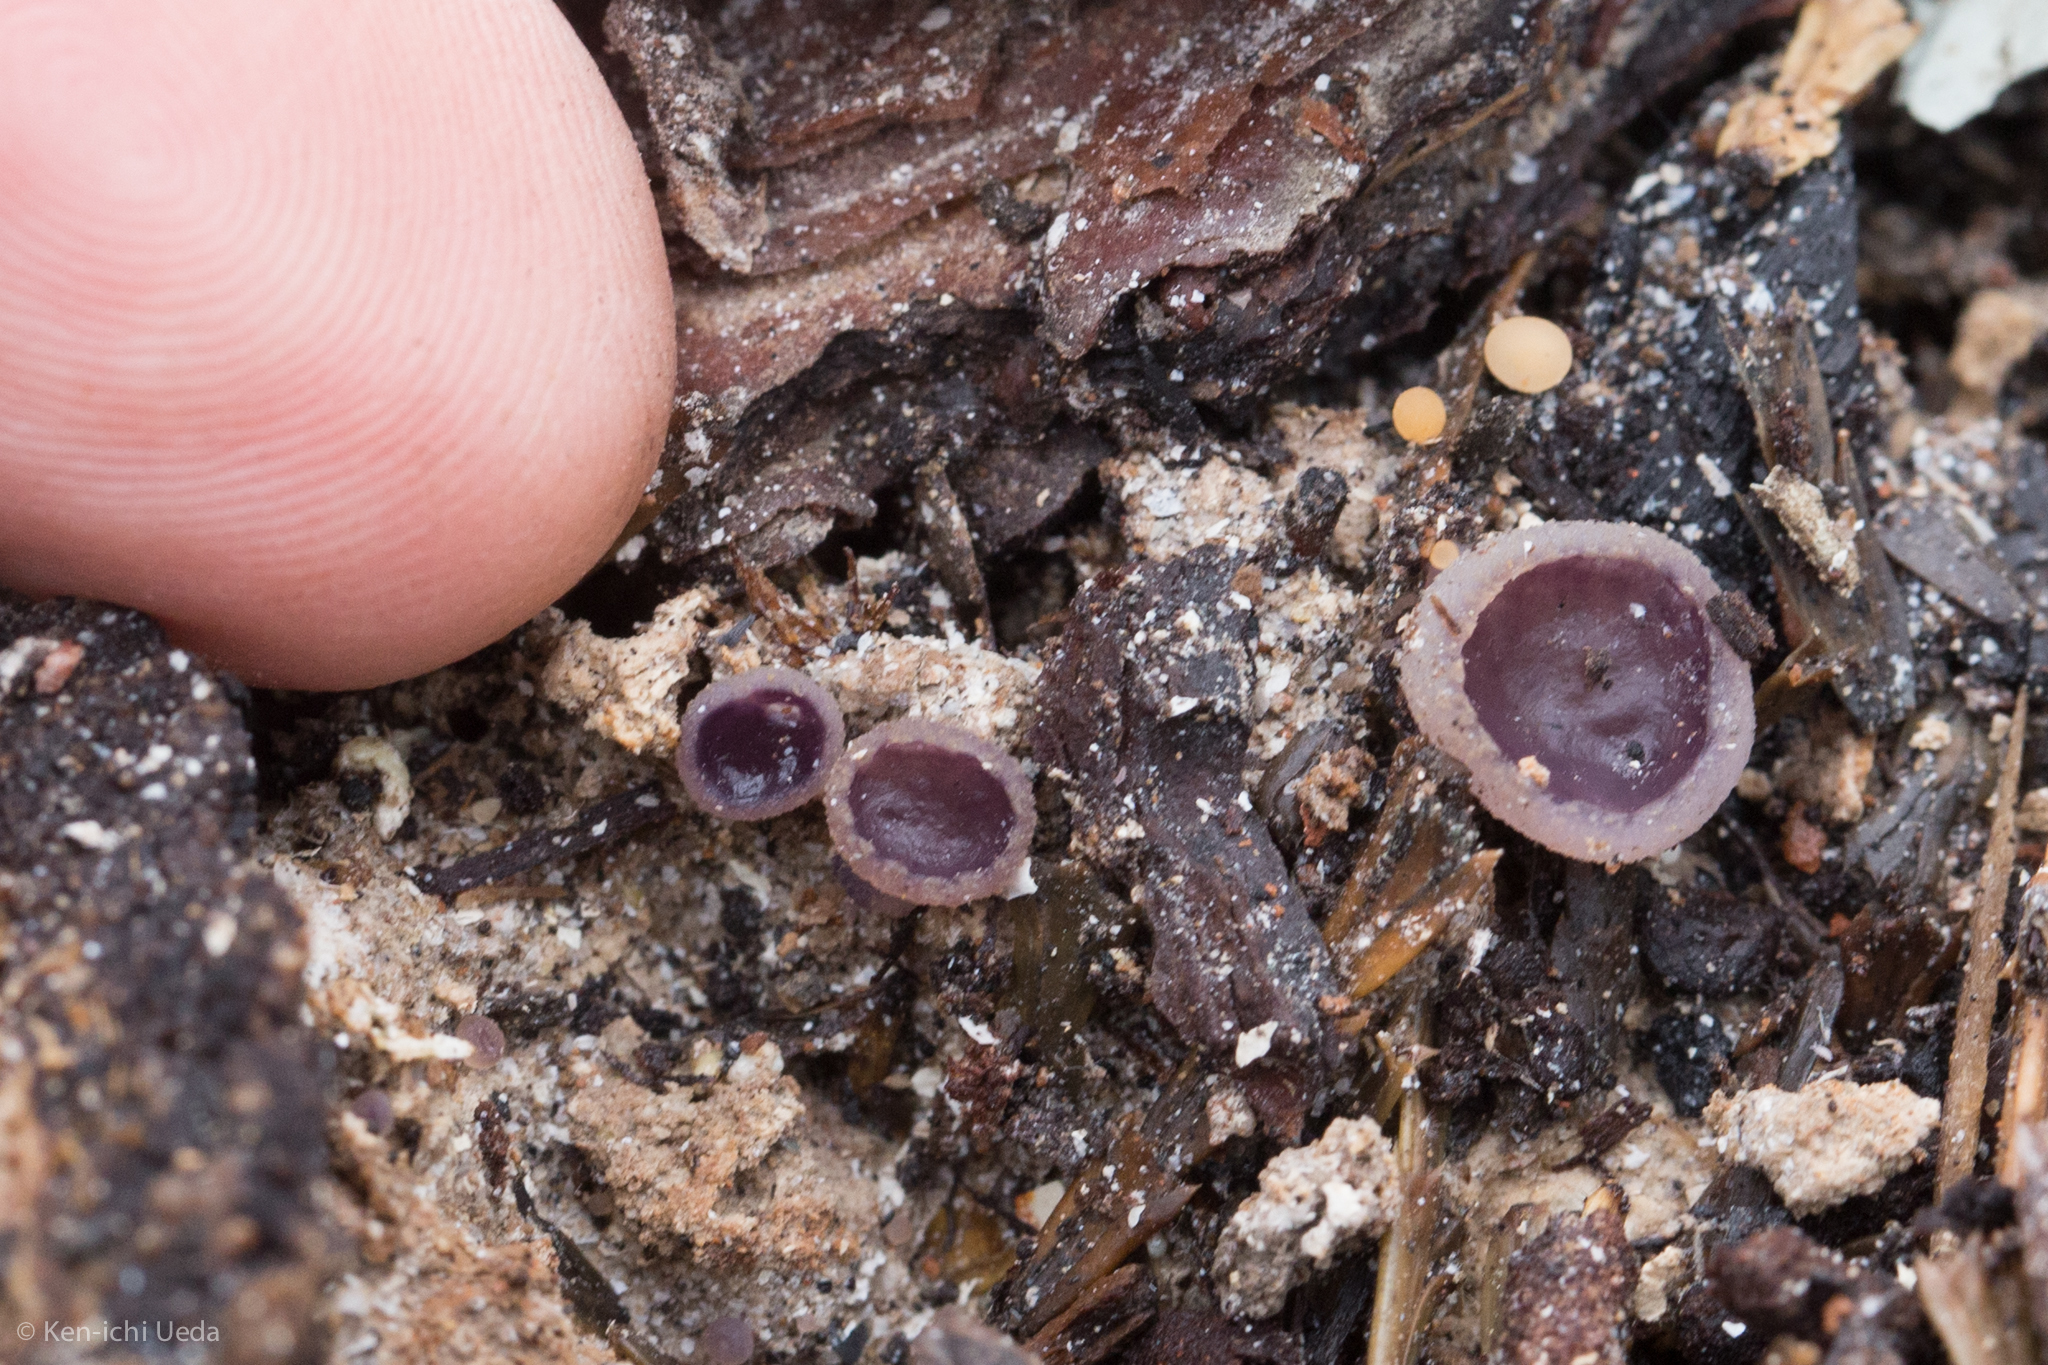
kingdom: Fungi
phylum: Ascomycota
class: Pezizomycetes
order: Pezizales
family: Pezizaceae
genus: Geoscypha
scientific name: Geoscypha violacea
